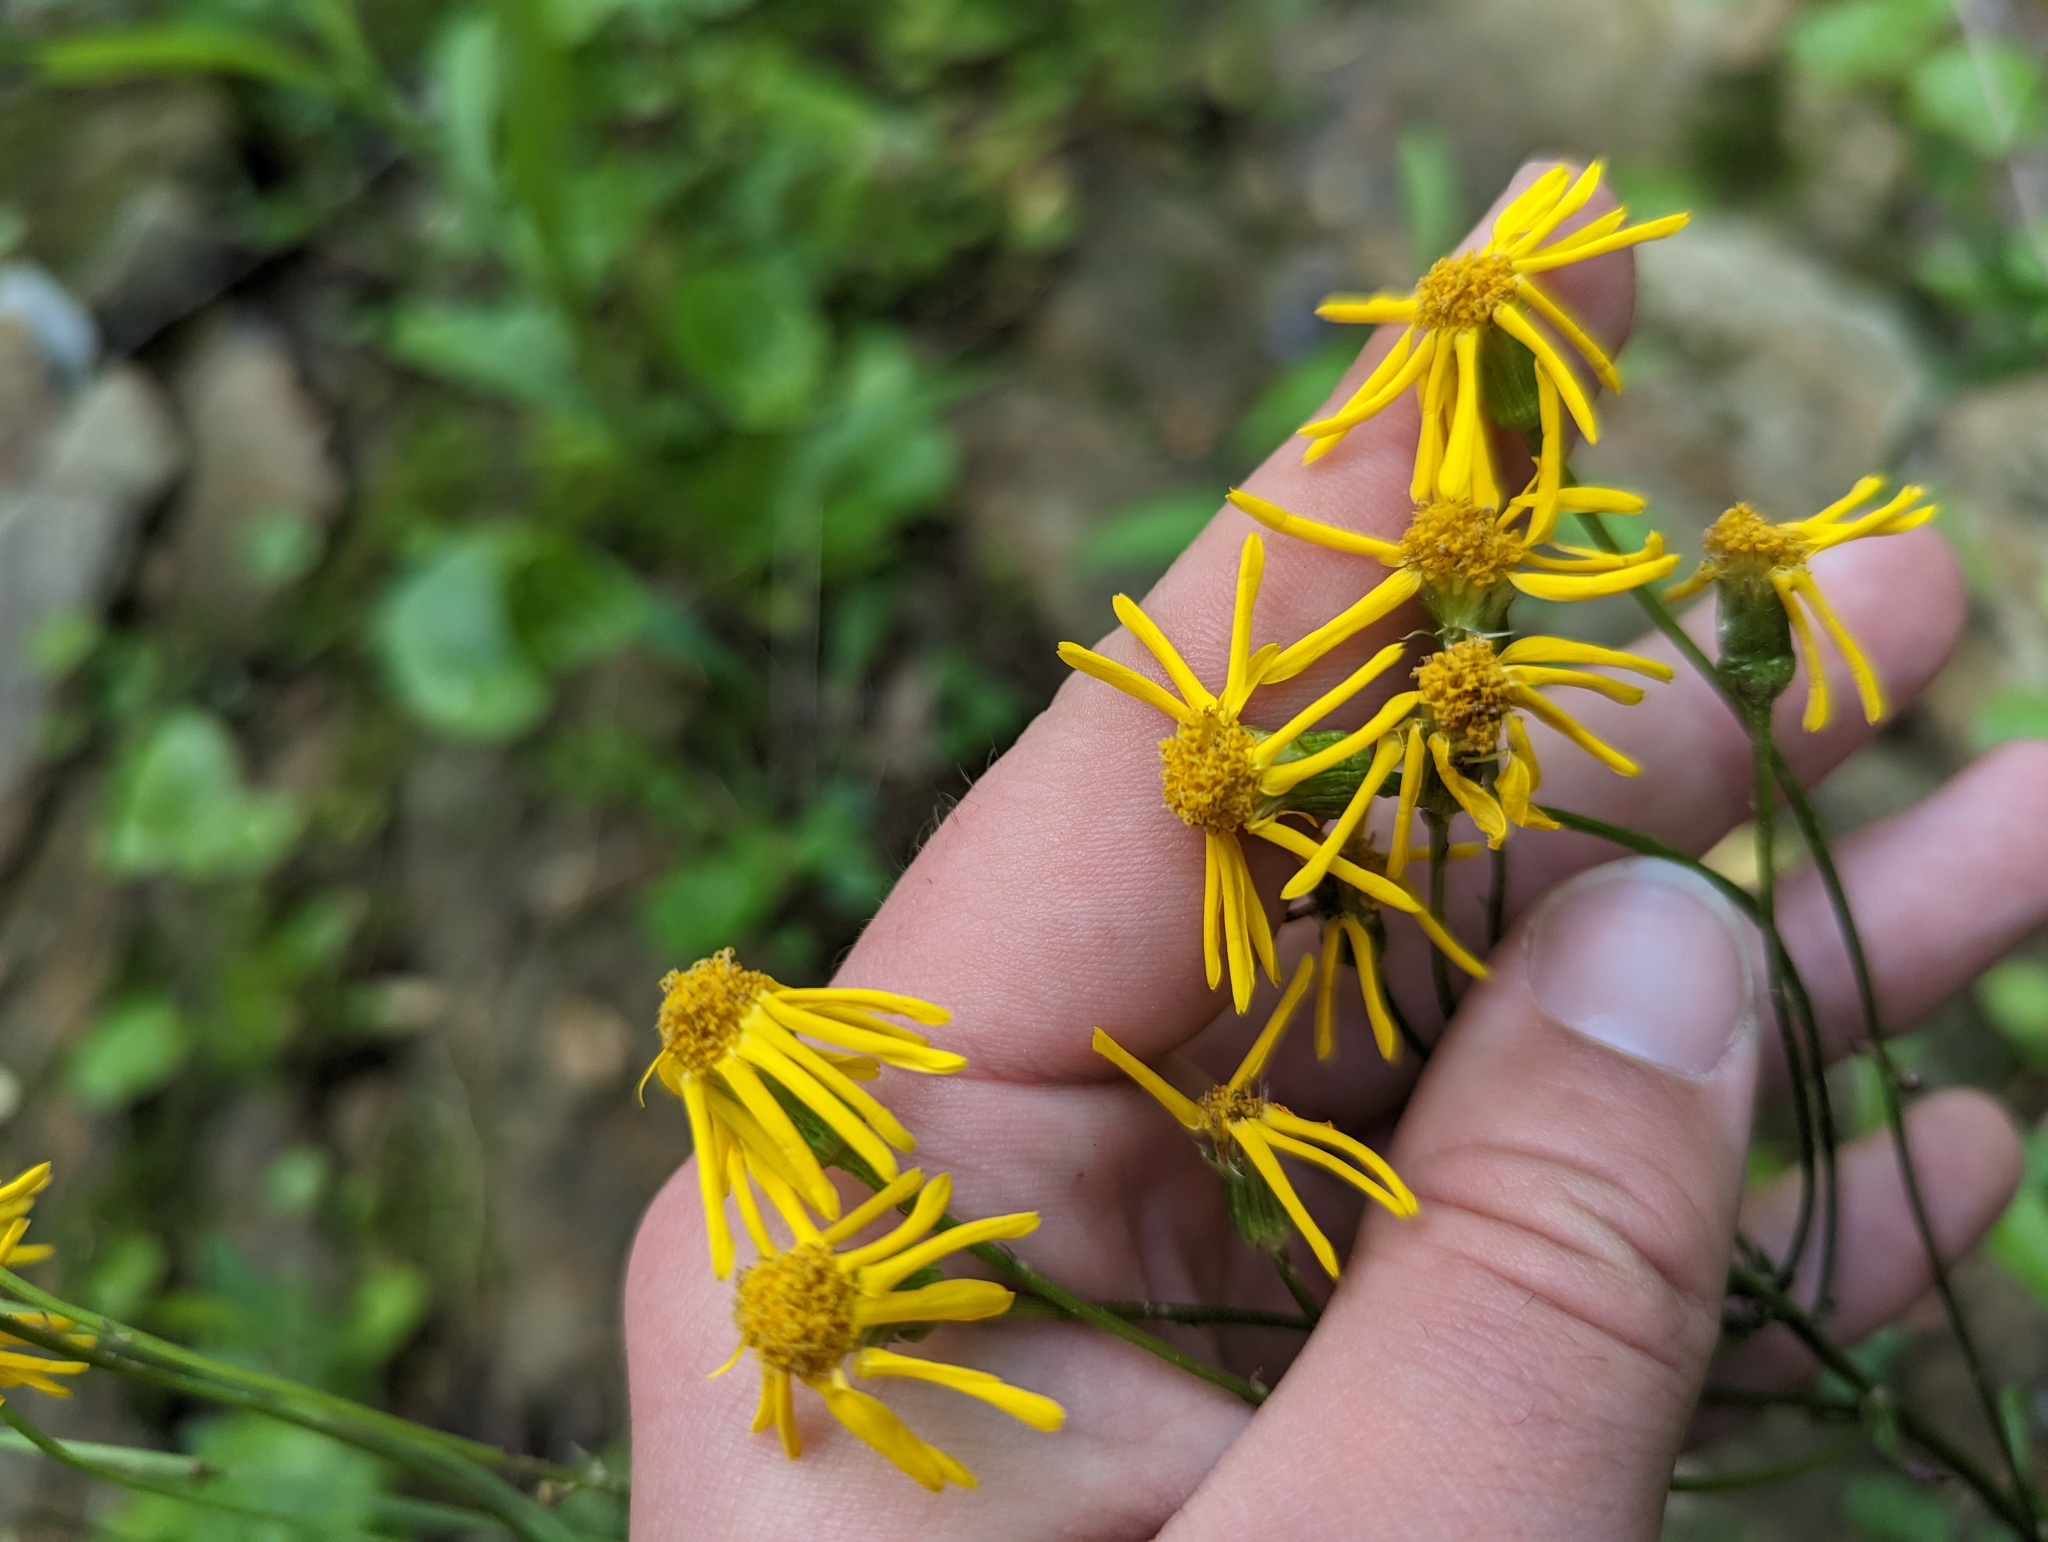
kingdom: Plantae
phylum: Tracheophyta
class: Magnoliopsida
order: Asterales
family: Asteraceae
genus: Packera
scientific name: Packera aurea
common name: Golden groundsel
